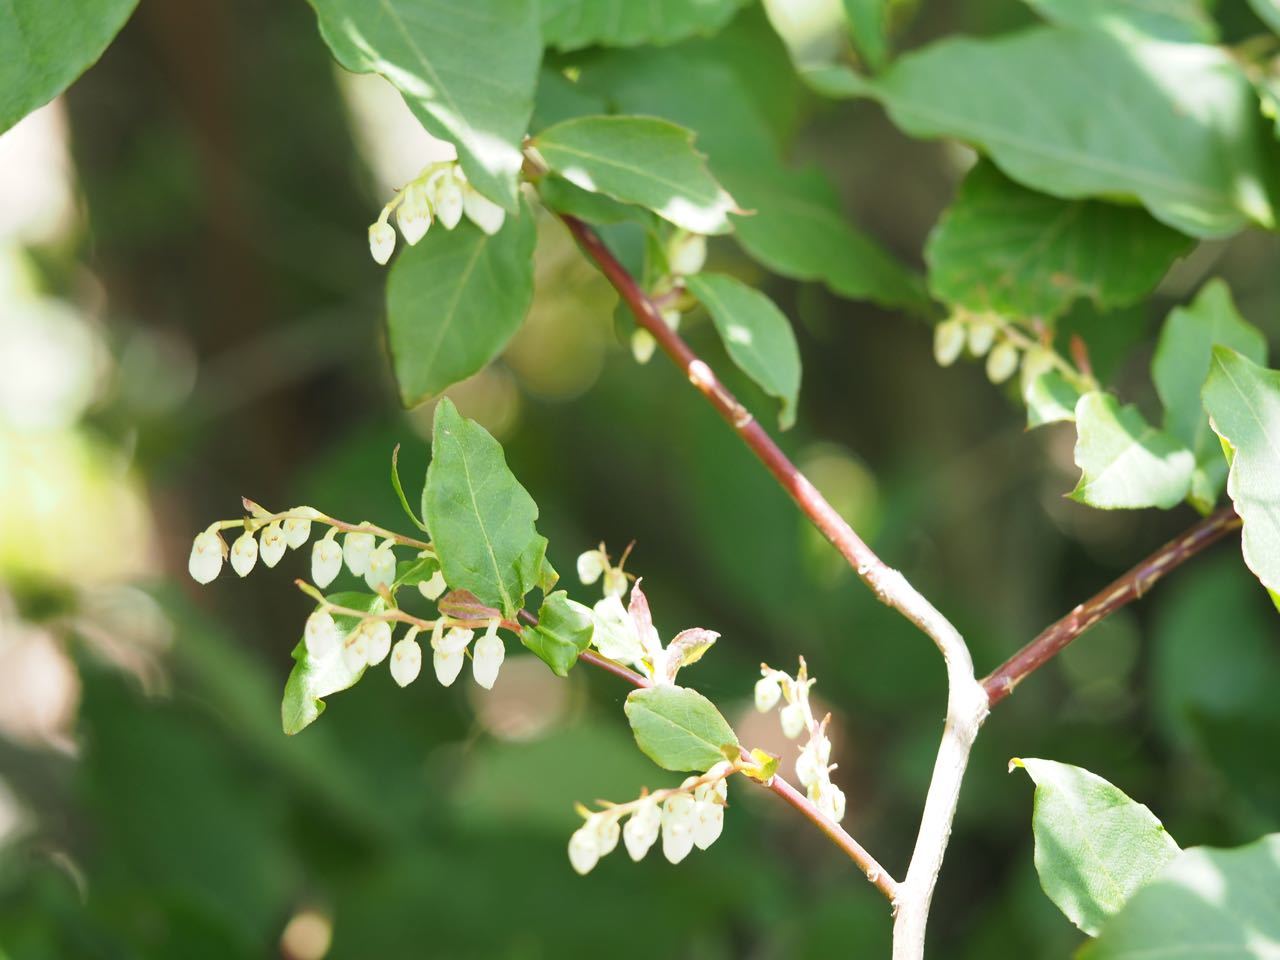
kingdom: Plantae
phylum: Tracheophyta
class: Magnoliopsida
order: Ericales
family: Ericaceae
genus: Lyonia
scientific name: Lyonia ovalifolia
